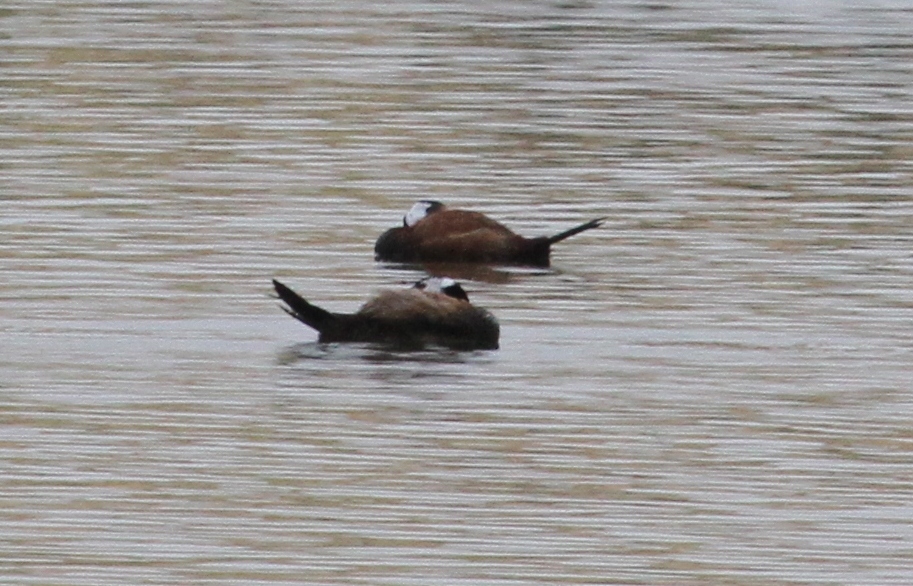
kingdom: Animalia
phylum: Chordata
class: Aves
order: Anseriformes
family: Anatidae
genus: Oxyura
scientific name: Oxyura leucocephala
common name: White-headed duck
